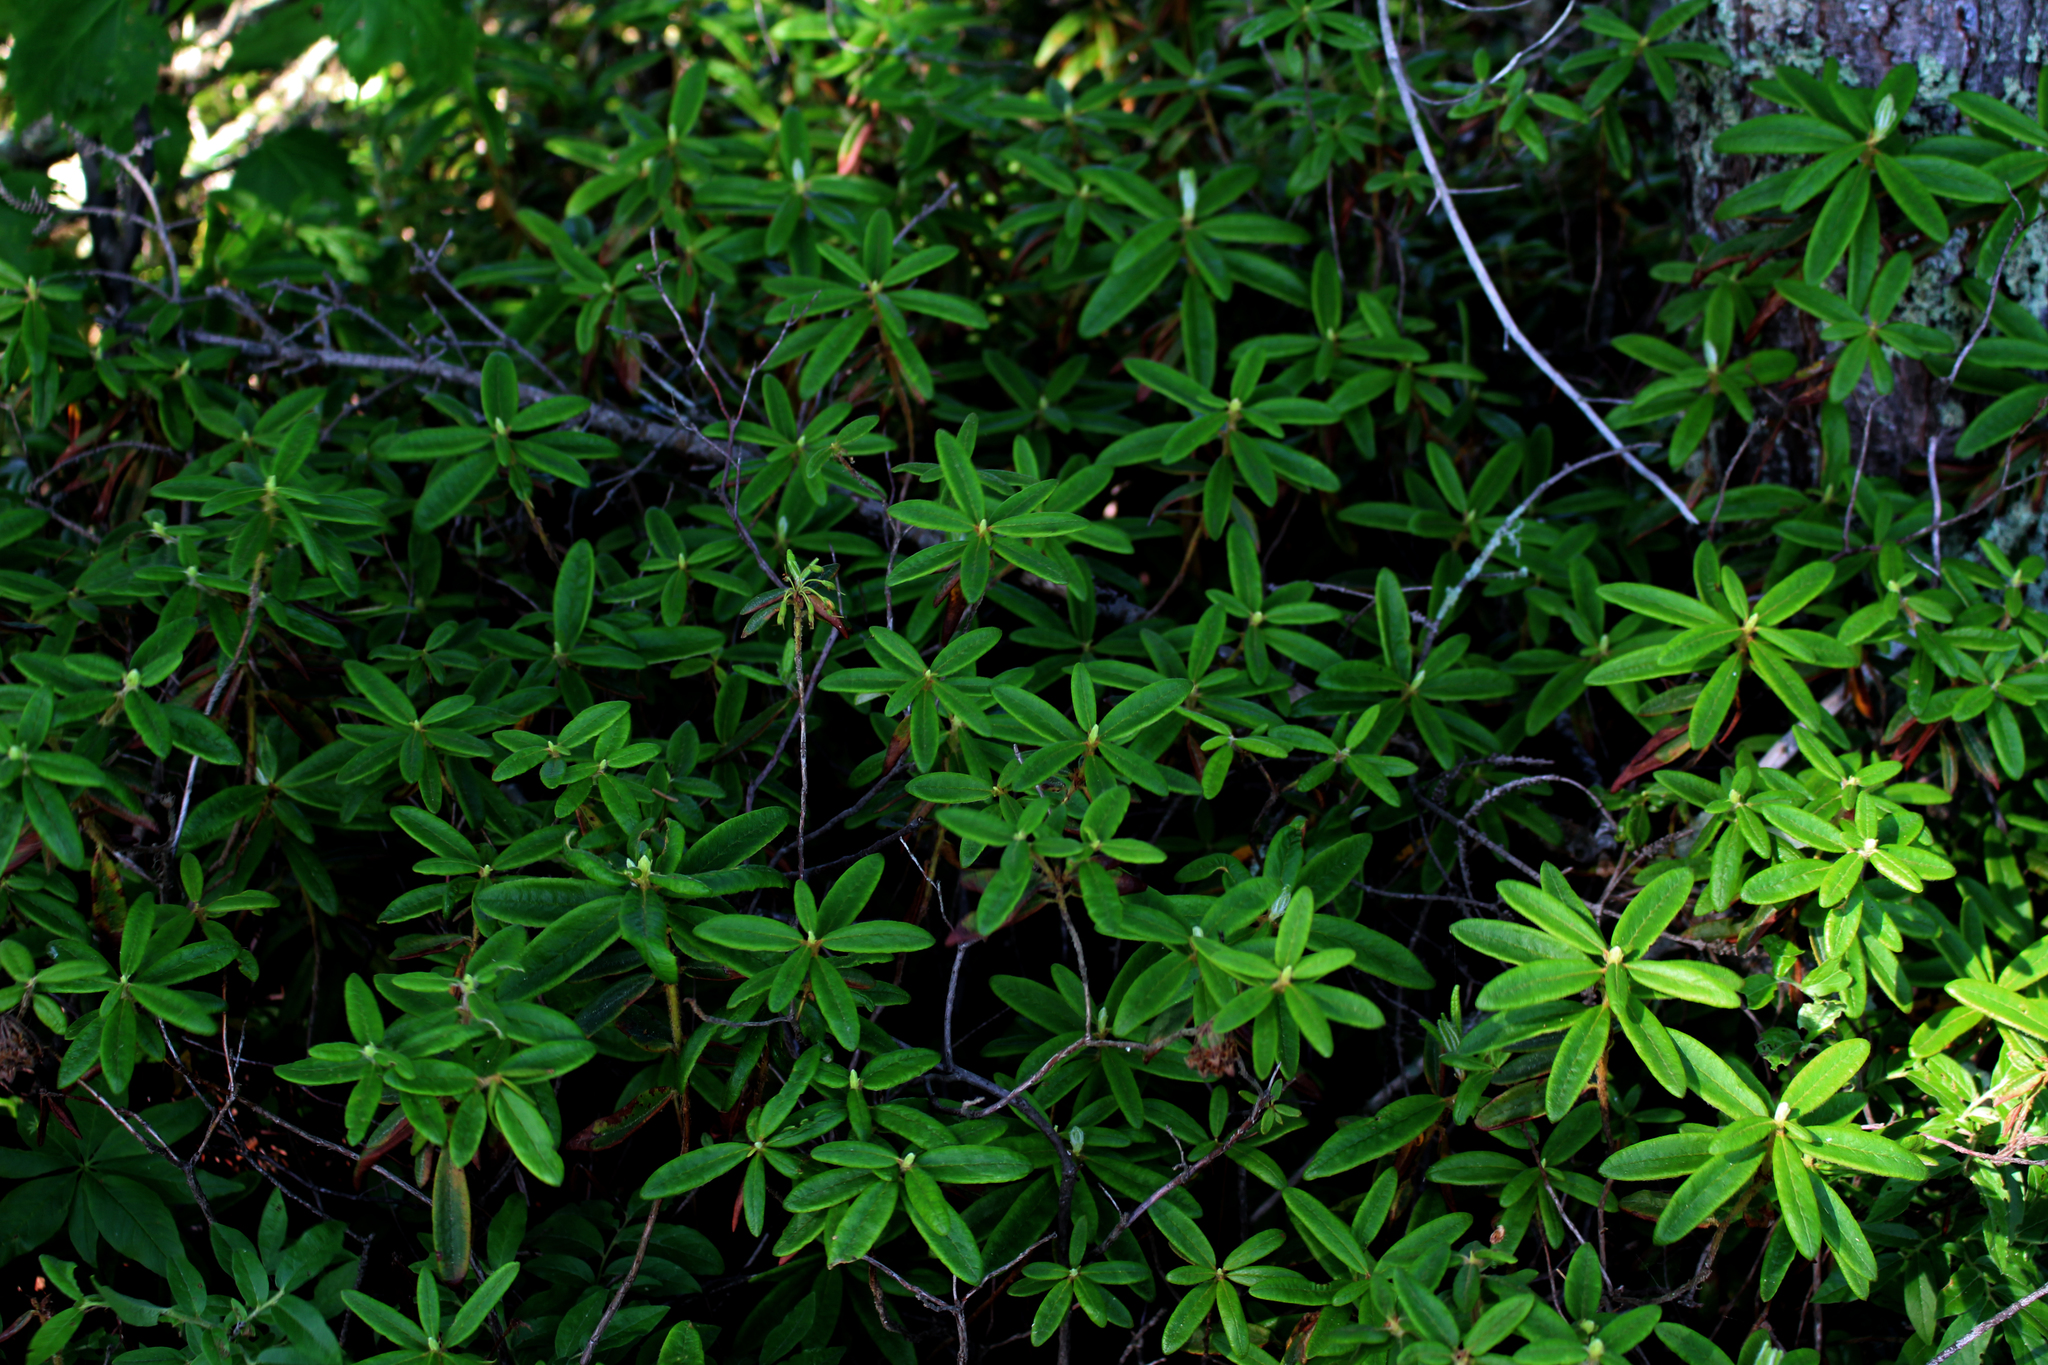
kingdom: Plantae
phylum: Tracheophyta
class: Magnoliopsida
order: Ericales
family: Ericaceae
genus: Rhododendron
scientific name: Rhododendron groenlandicum
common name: Bog labrador tea
